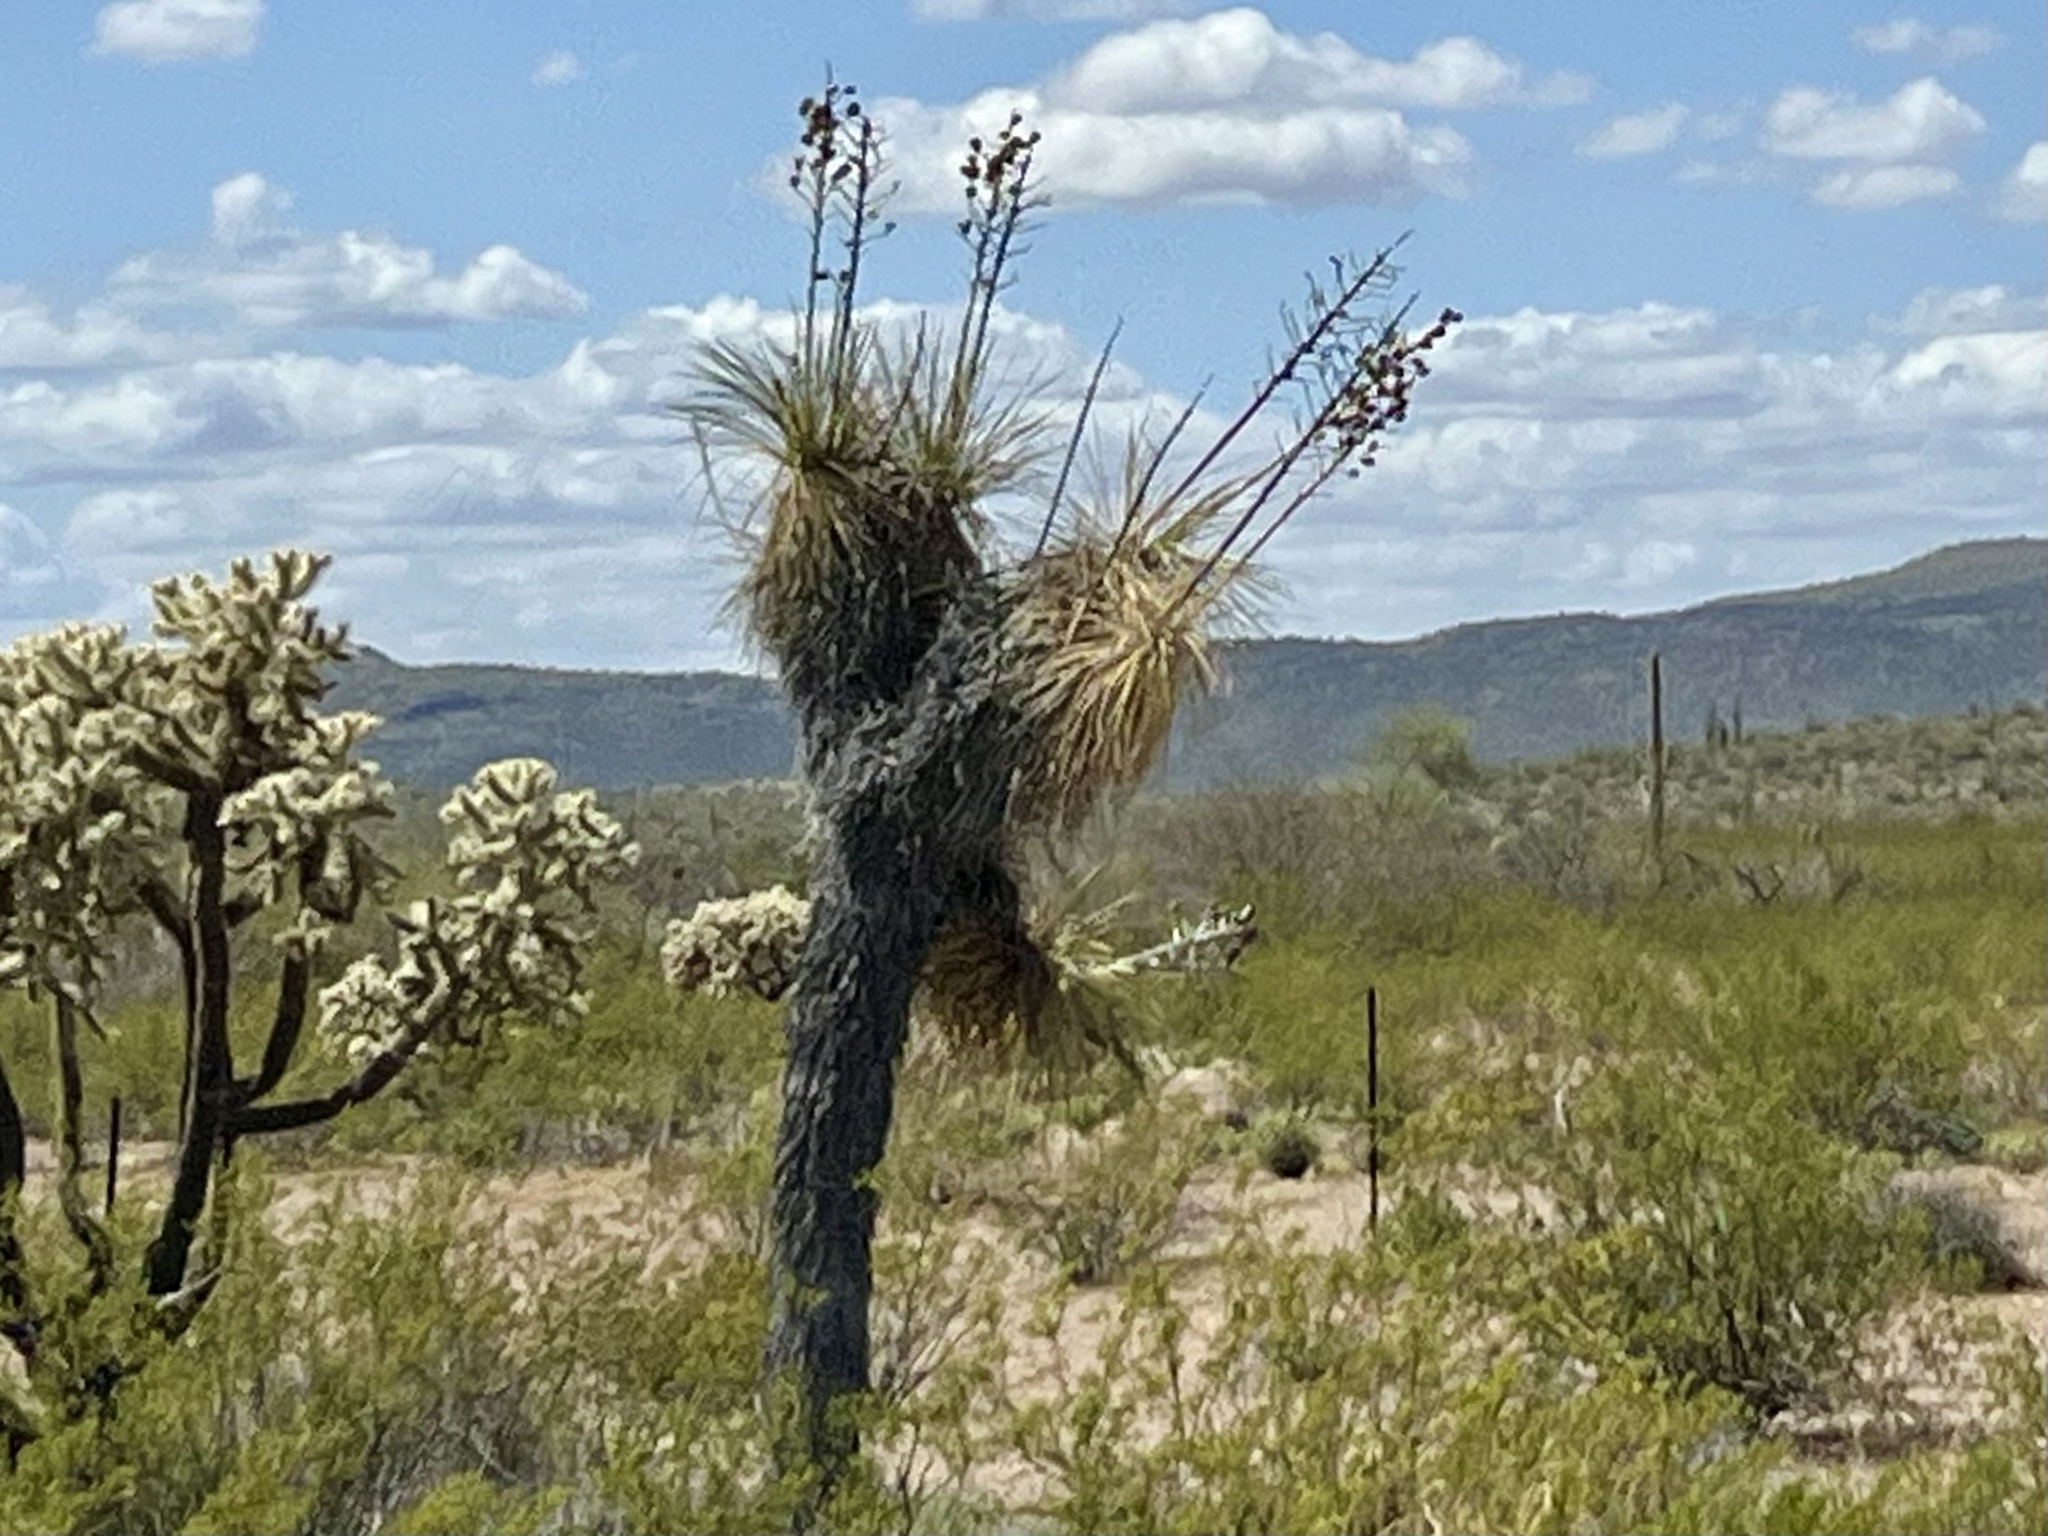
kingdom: Plantae
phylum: Tracheophyta
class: Liliopsida
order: Asparagales
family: Asparagaceae
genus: Yucca
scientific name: Yucca elata
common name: Palmella
